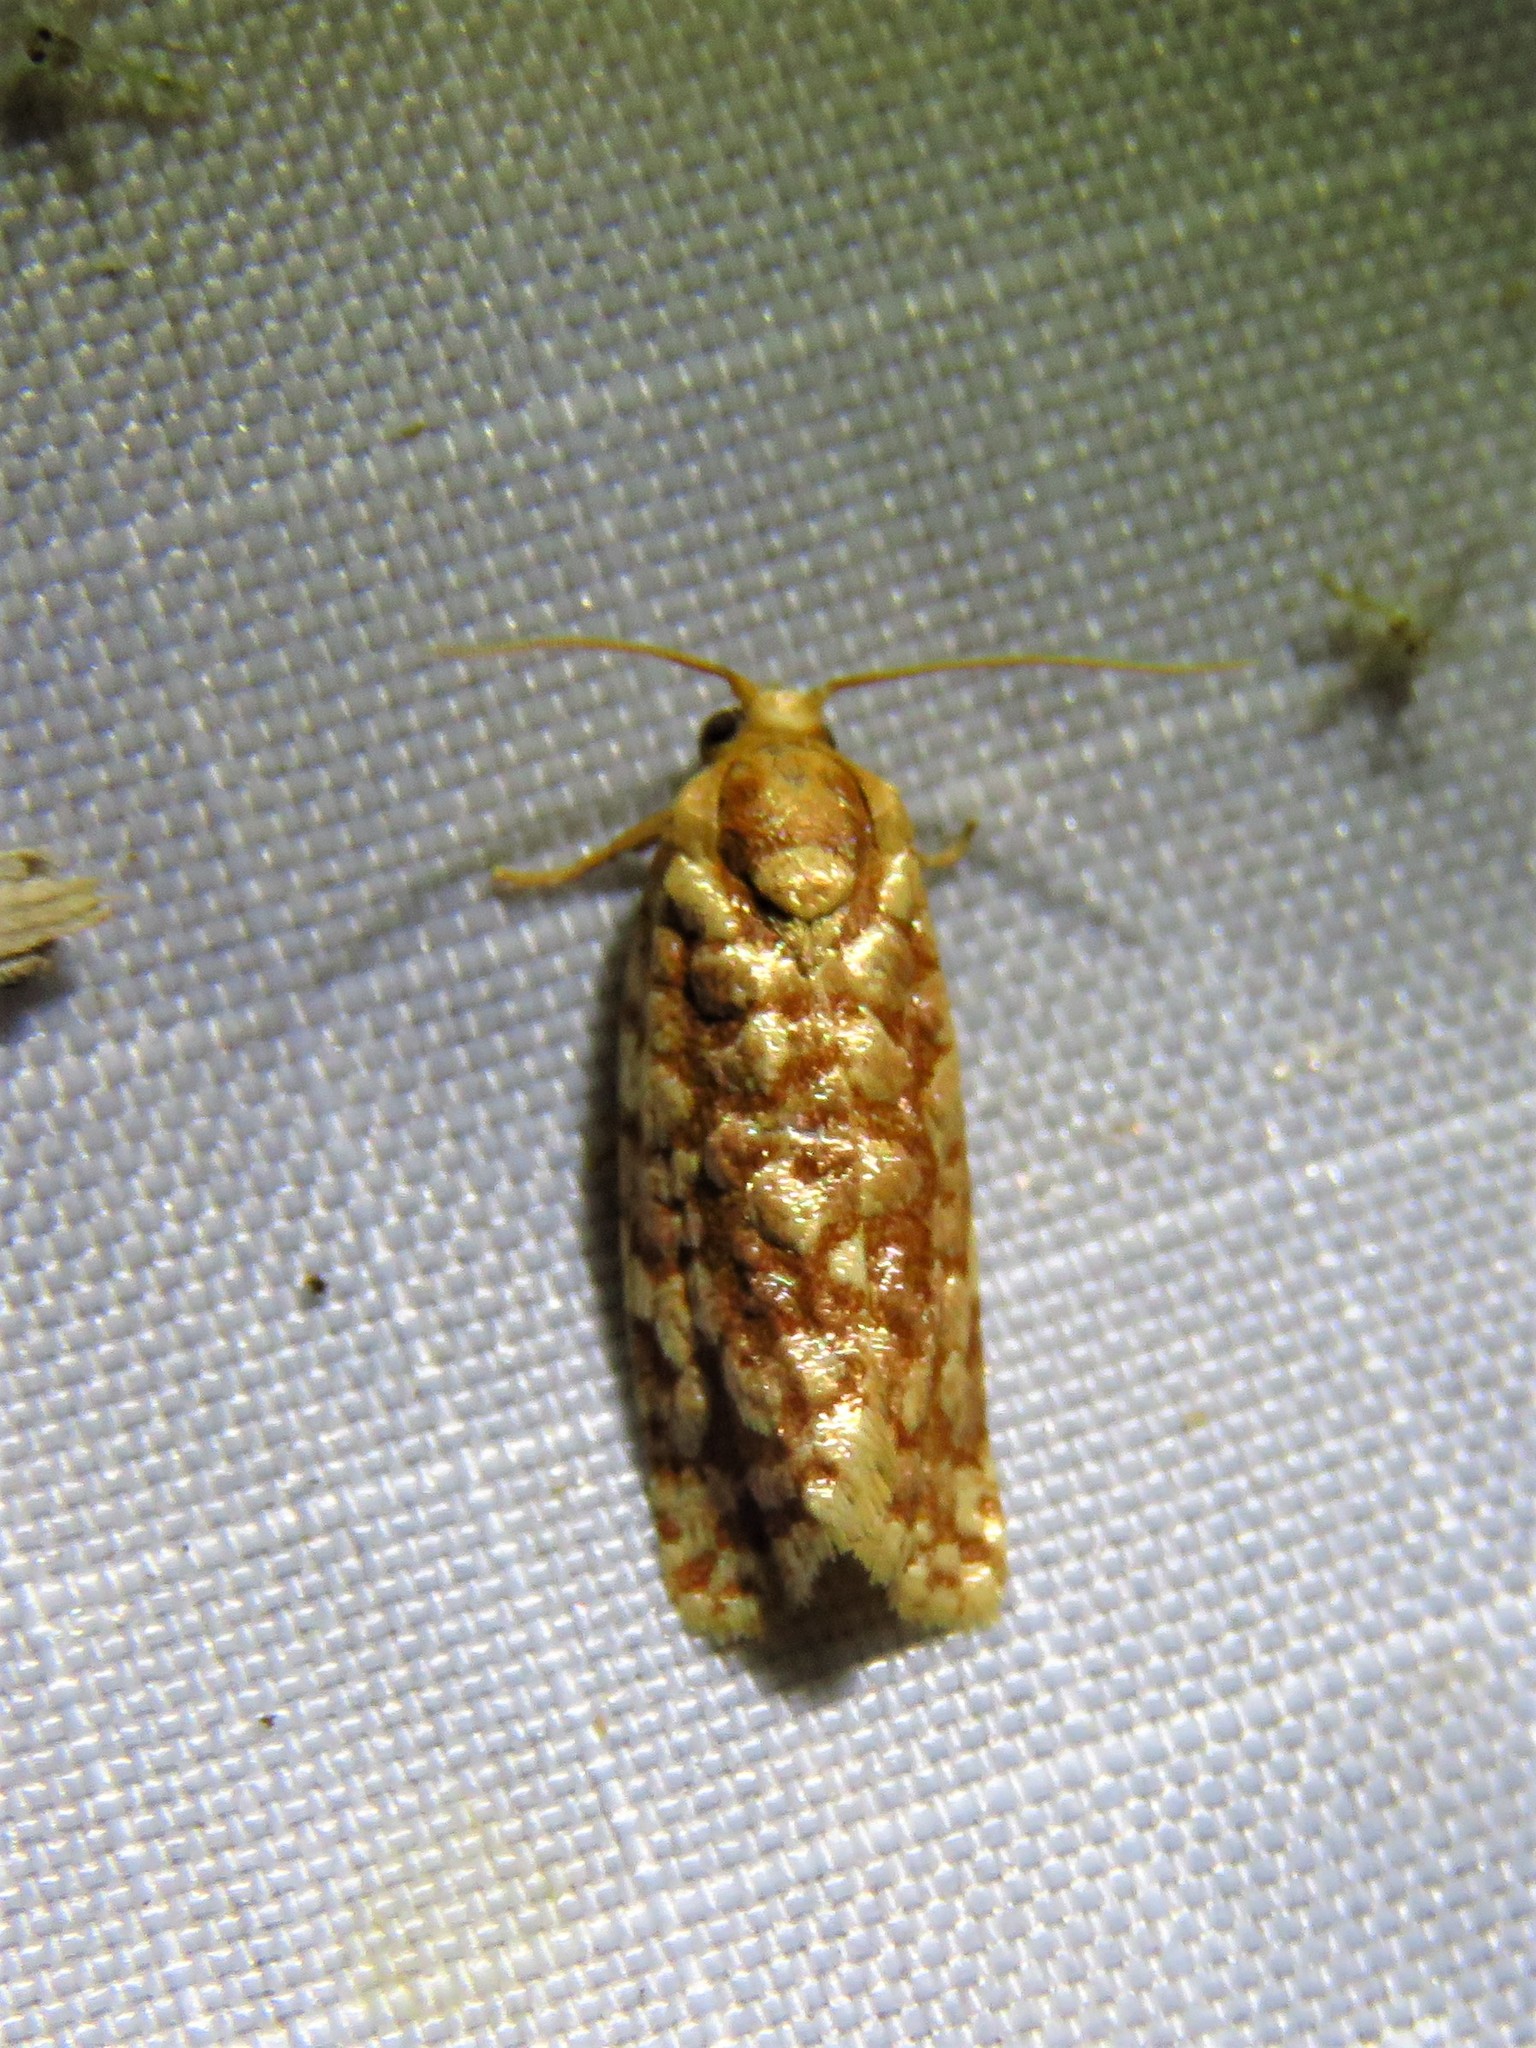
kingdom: Animalia
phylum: Arthropoda
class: Insecta
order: Lepidoptera
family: Tortricidae
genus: Choristoneura
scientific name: Choristoneura houstonana
